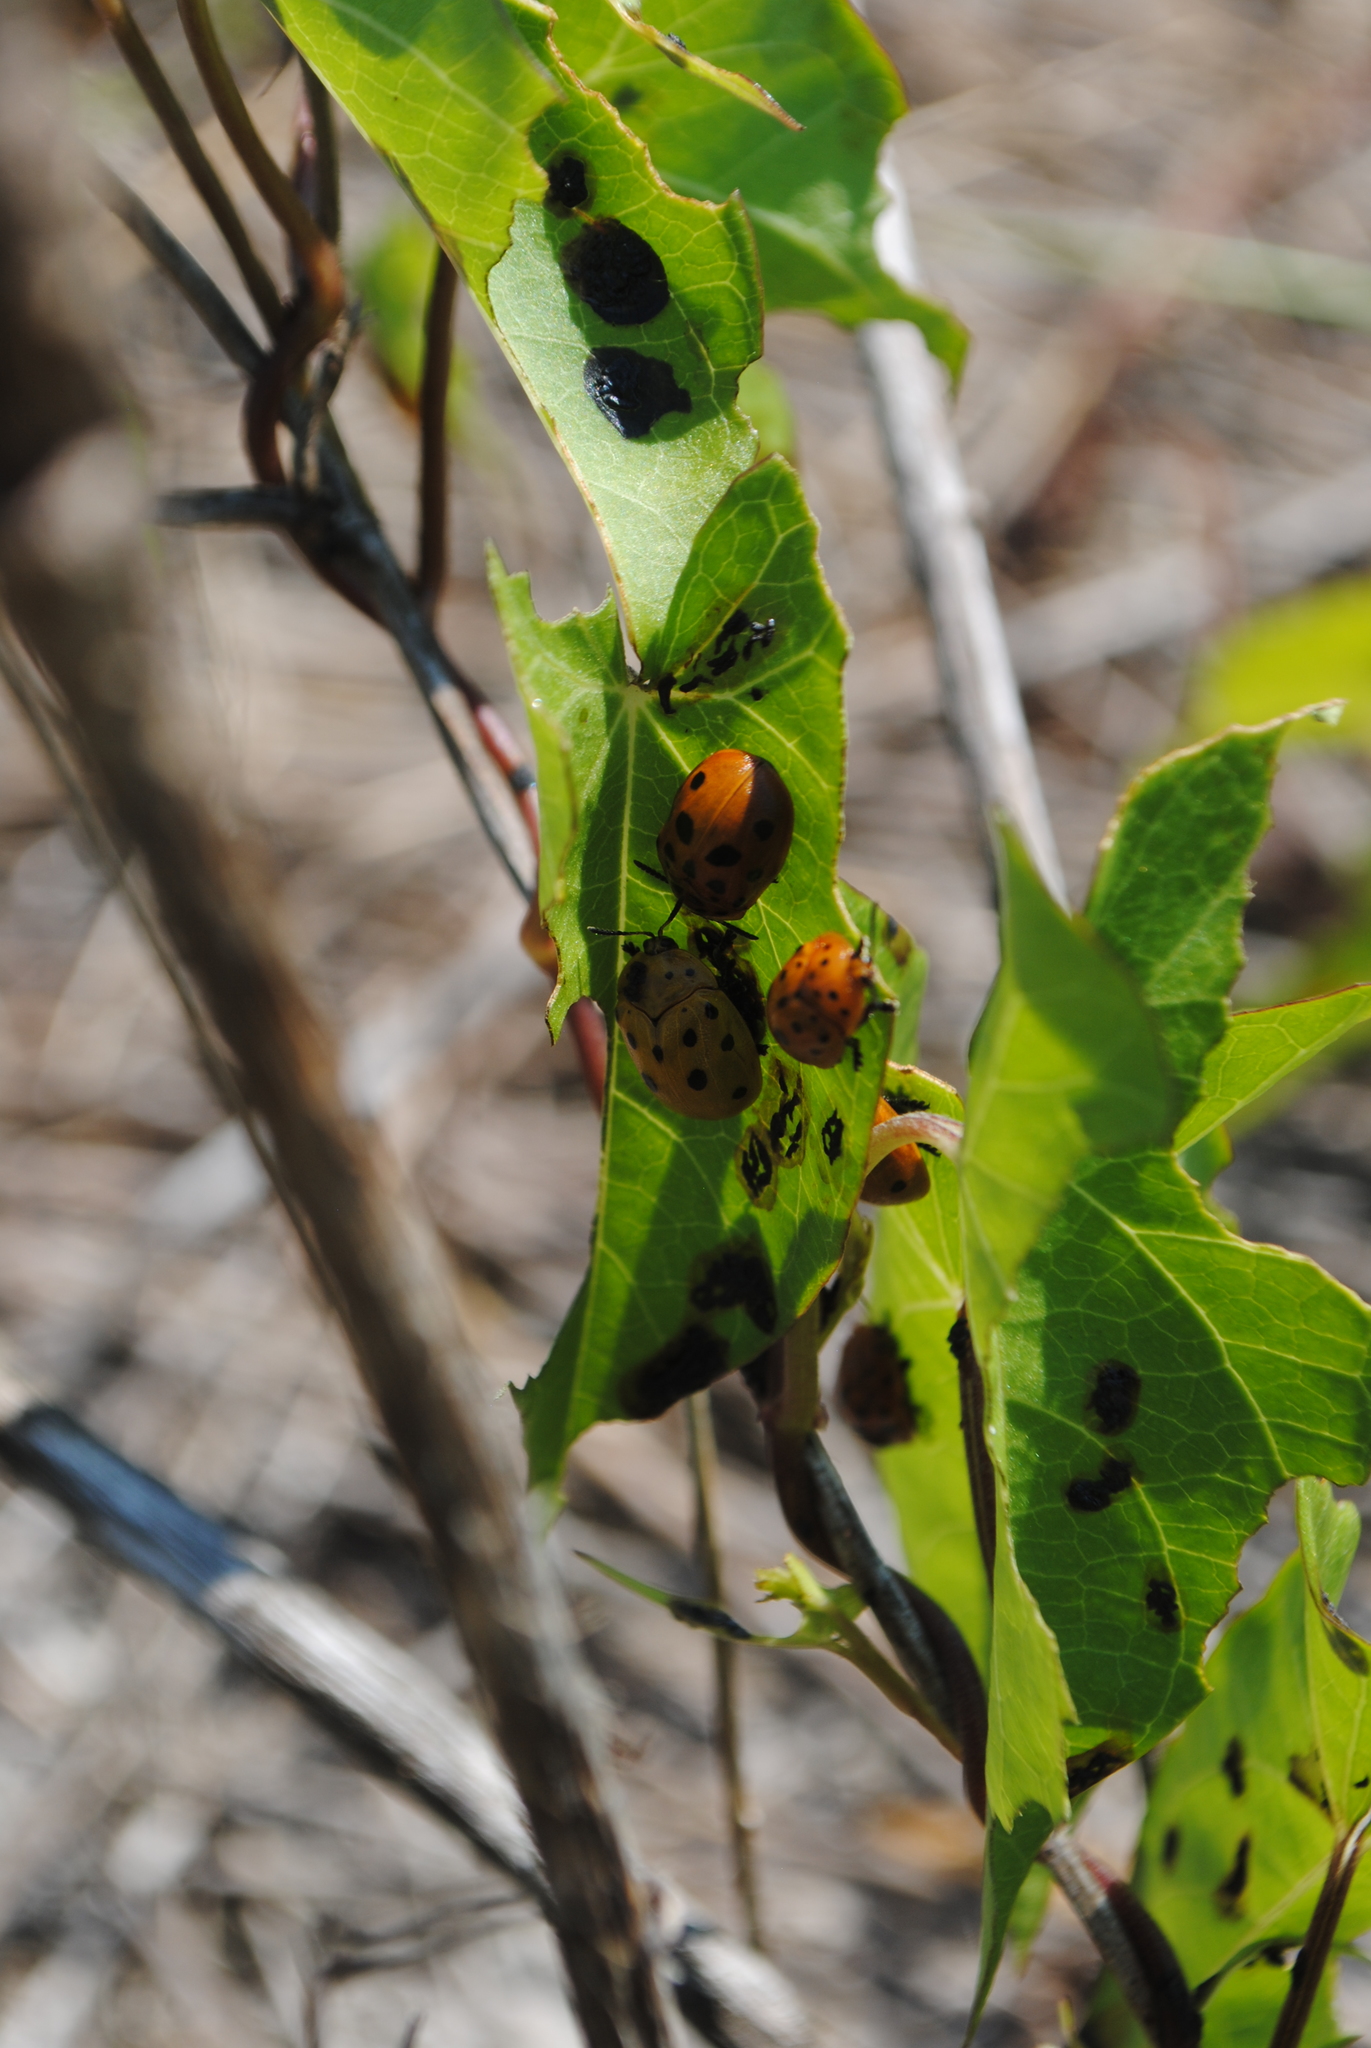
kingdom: Animalia
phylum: Arthropoda
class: Insecta
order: Coleoptera
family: Chrysomelidae
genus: Chelymorpha
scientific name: Chelymorpha cassidea
